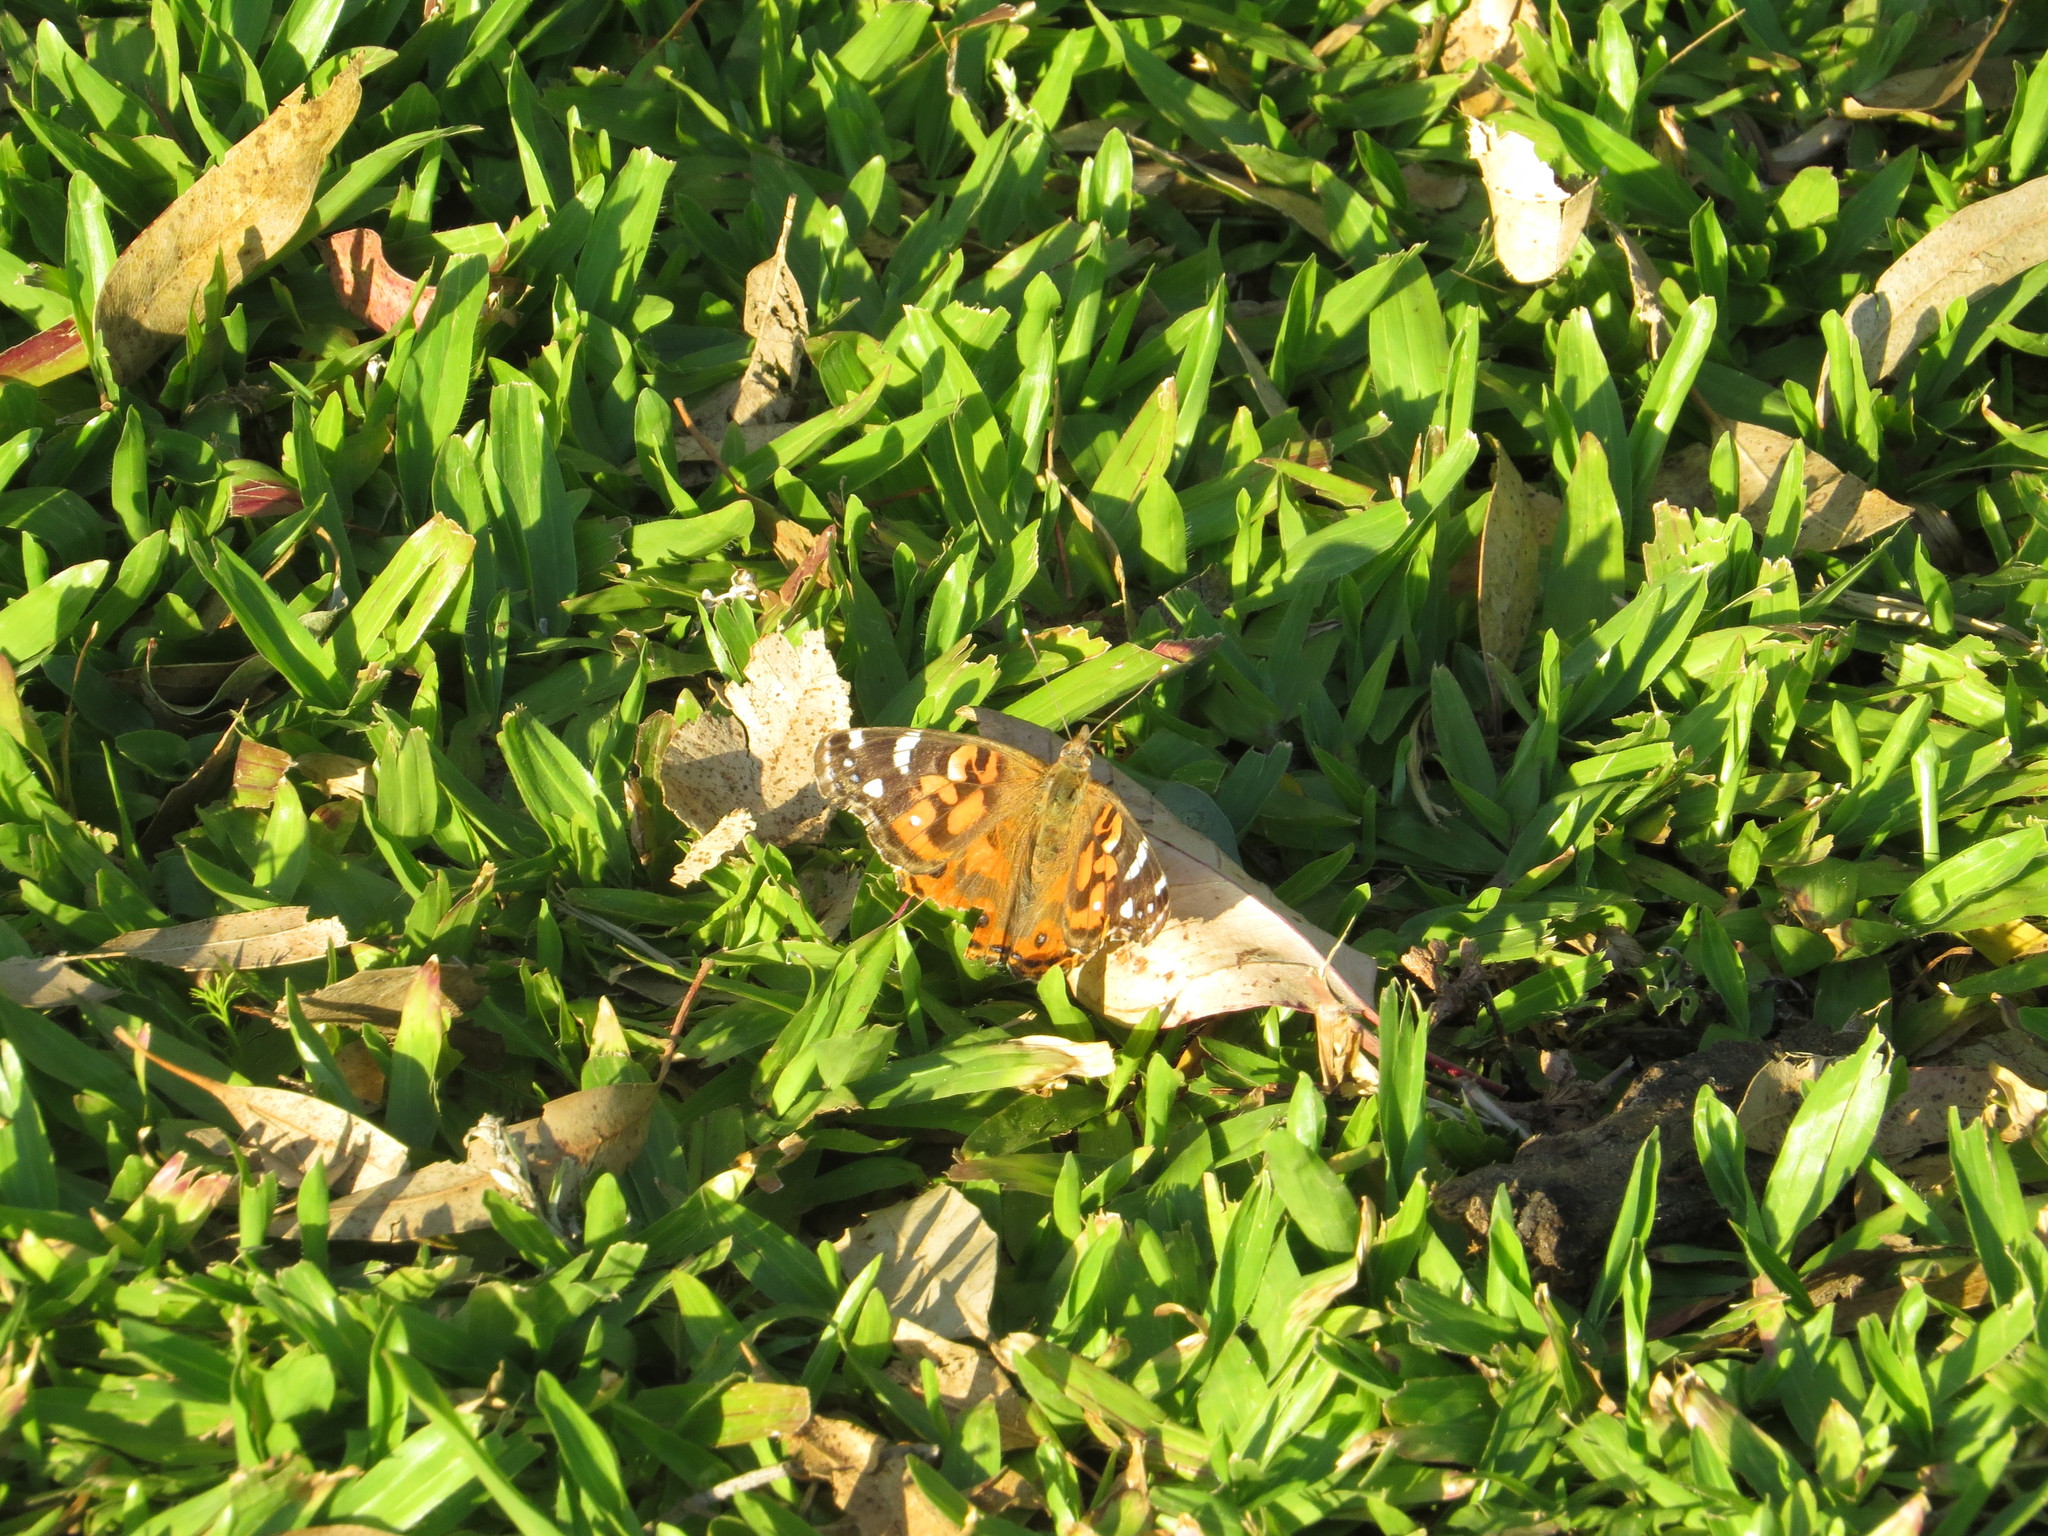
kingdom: Animalia
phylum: Arthropoda
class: Insecta
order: Lepidoptera
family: Nymphalidae
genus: Vanessa
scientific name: Vanessa braziliensis
